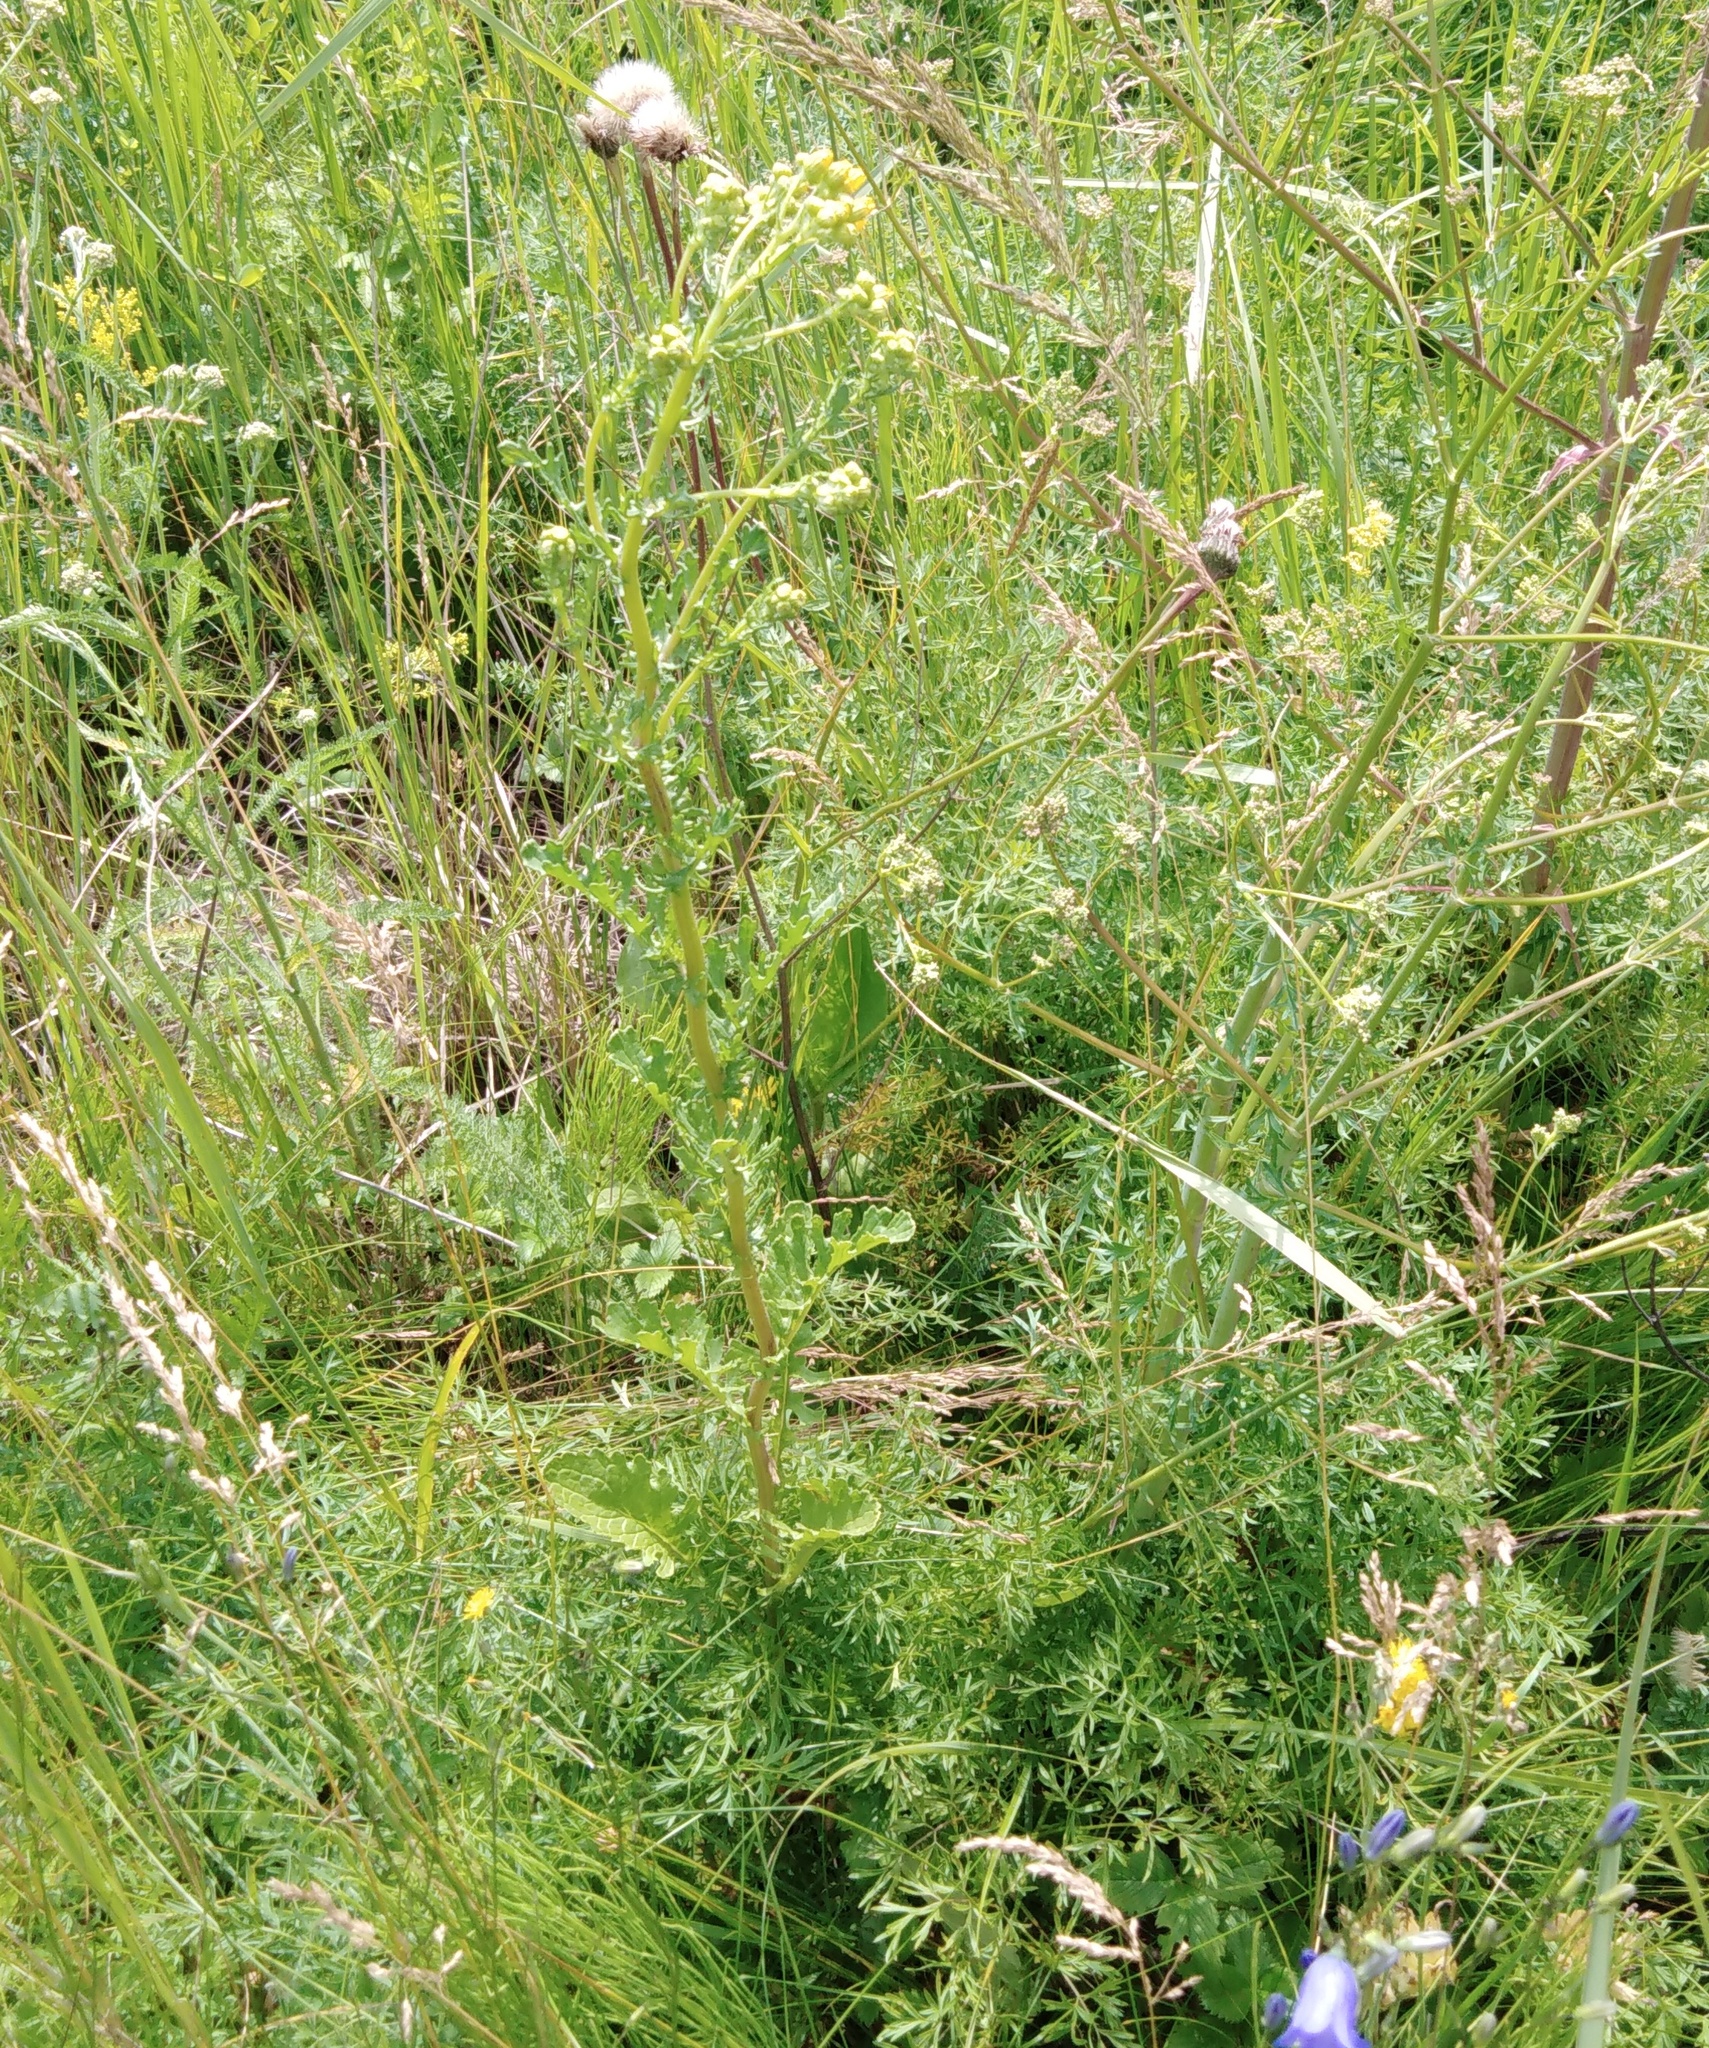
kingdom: Plantae
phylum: Tracheophyta
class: Magnoliopsida
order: Asterales
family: Asteraceae
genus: Jacobaea
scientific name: Jacobaea vulgaris
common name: Stinking willie
